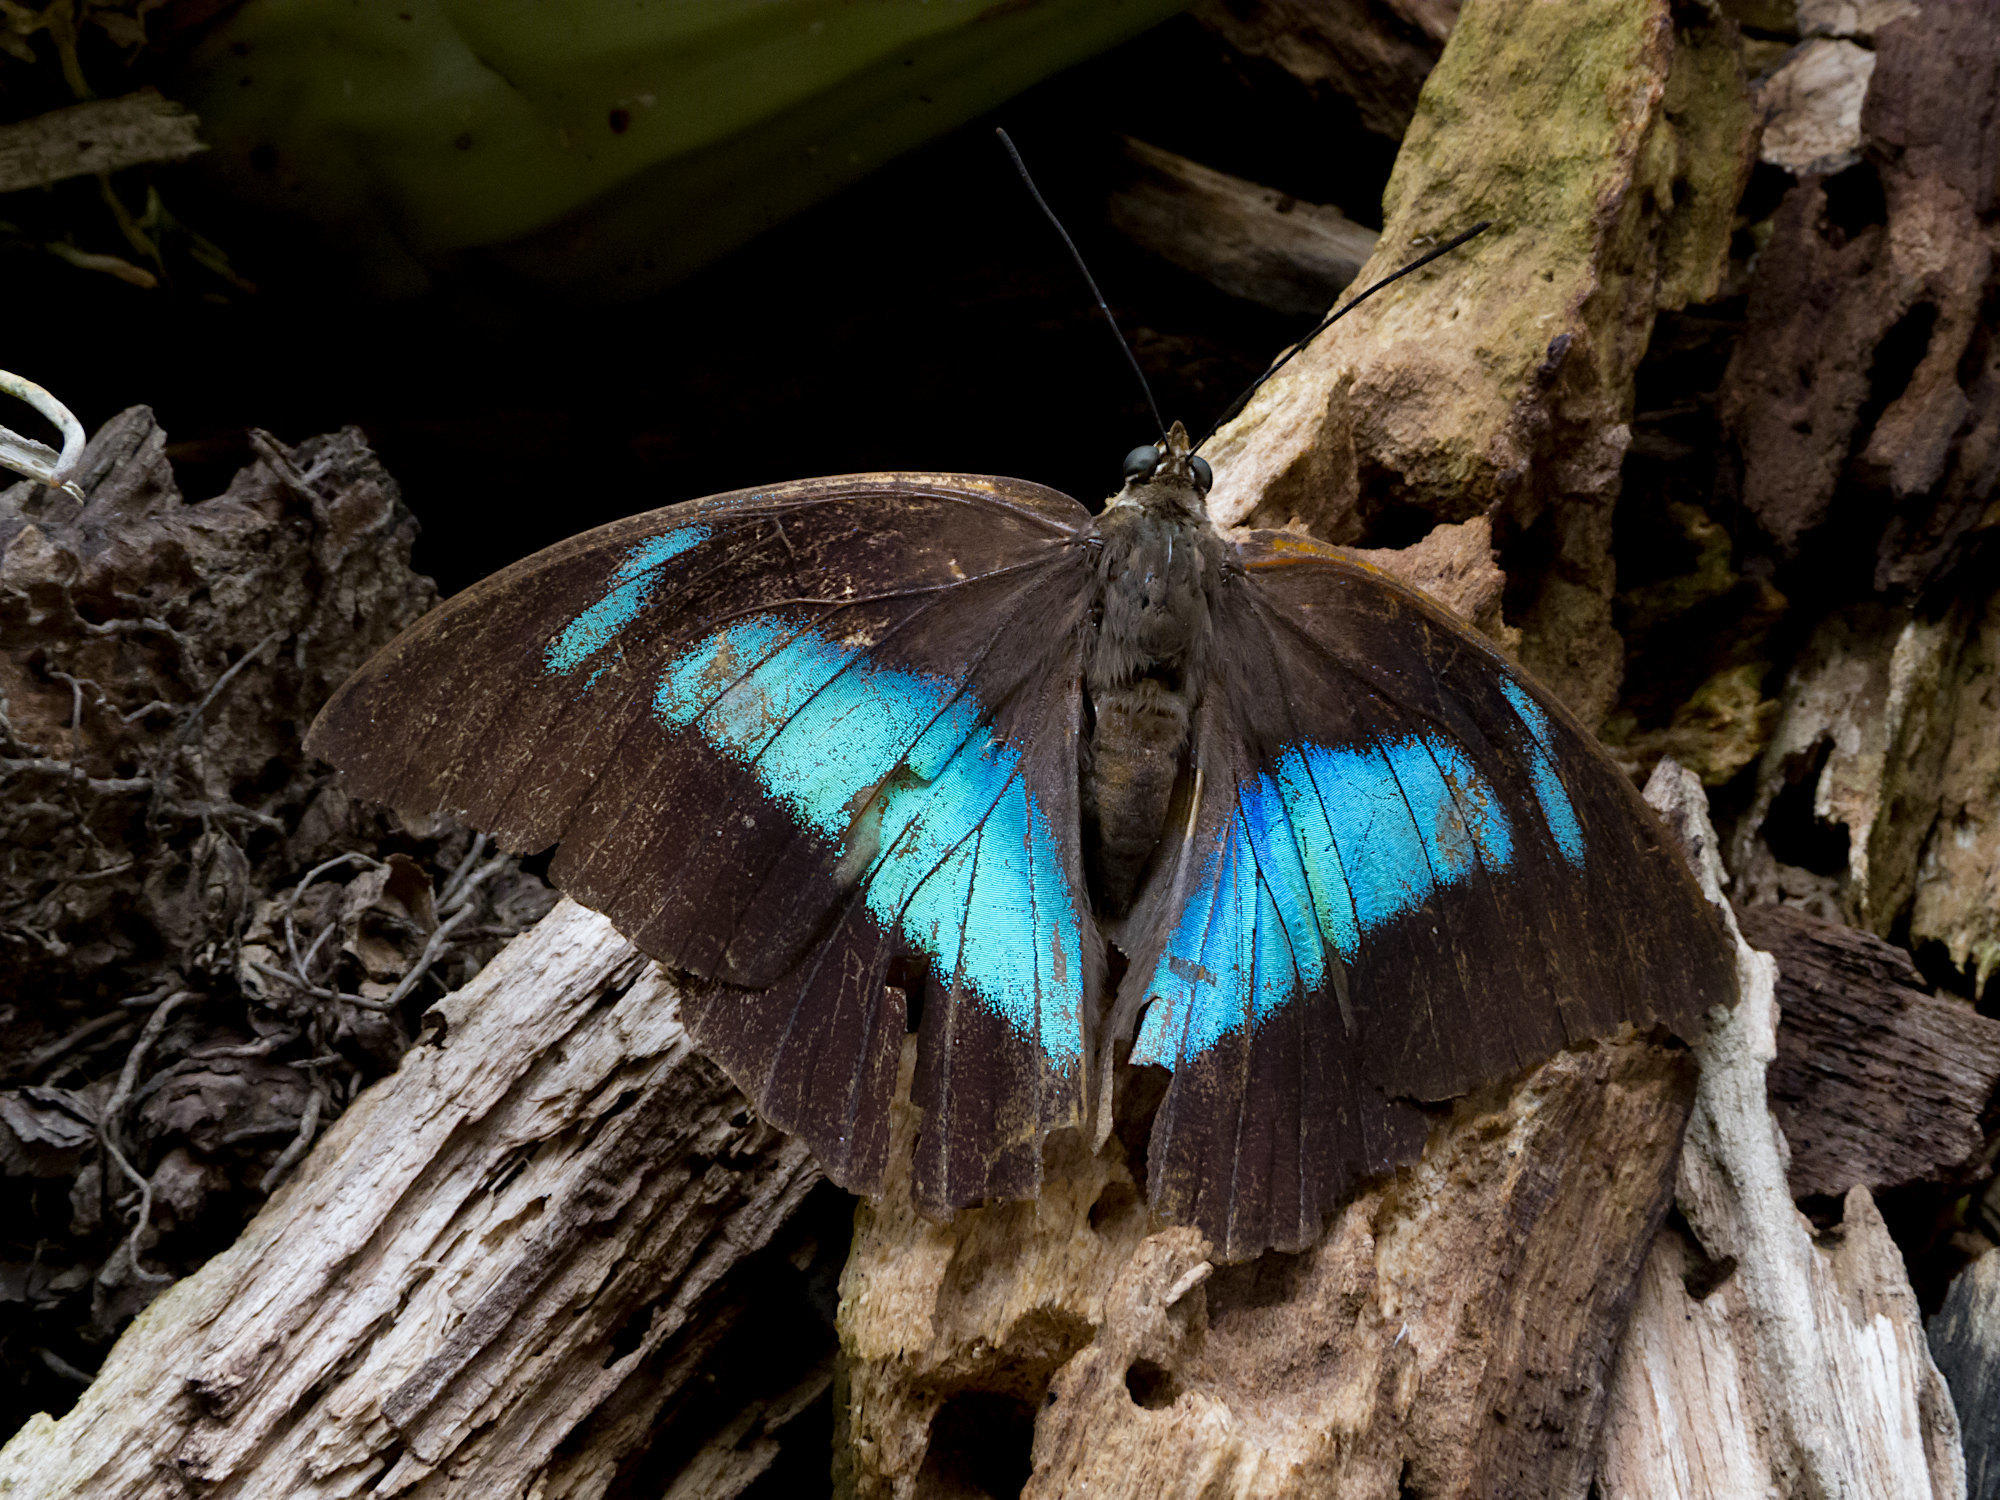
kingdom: Animalia
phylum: Arthropoda
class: Insecta
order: Lepidoptera
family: Nymphalidae
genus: Prepona
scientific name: Prepona demophon
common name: One-spotted prepona
